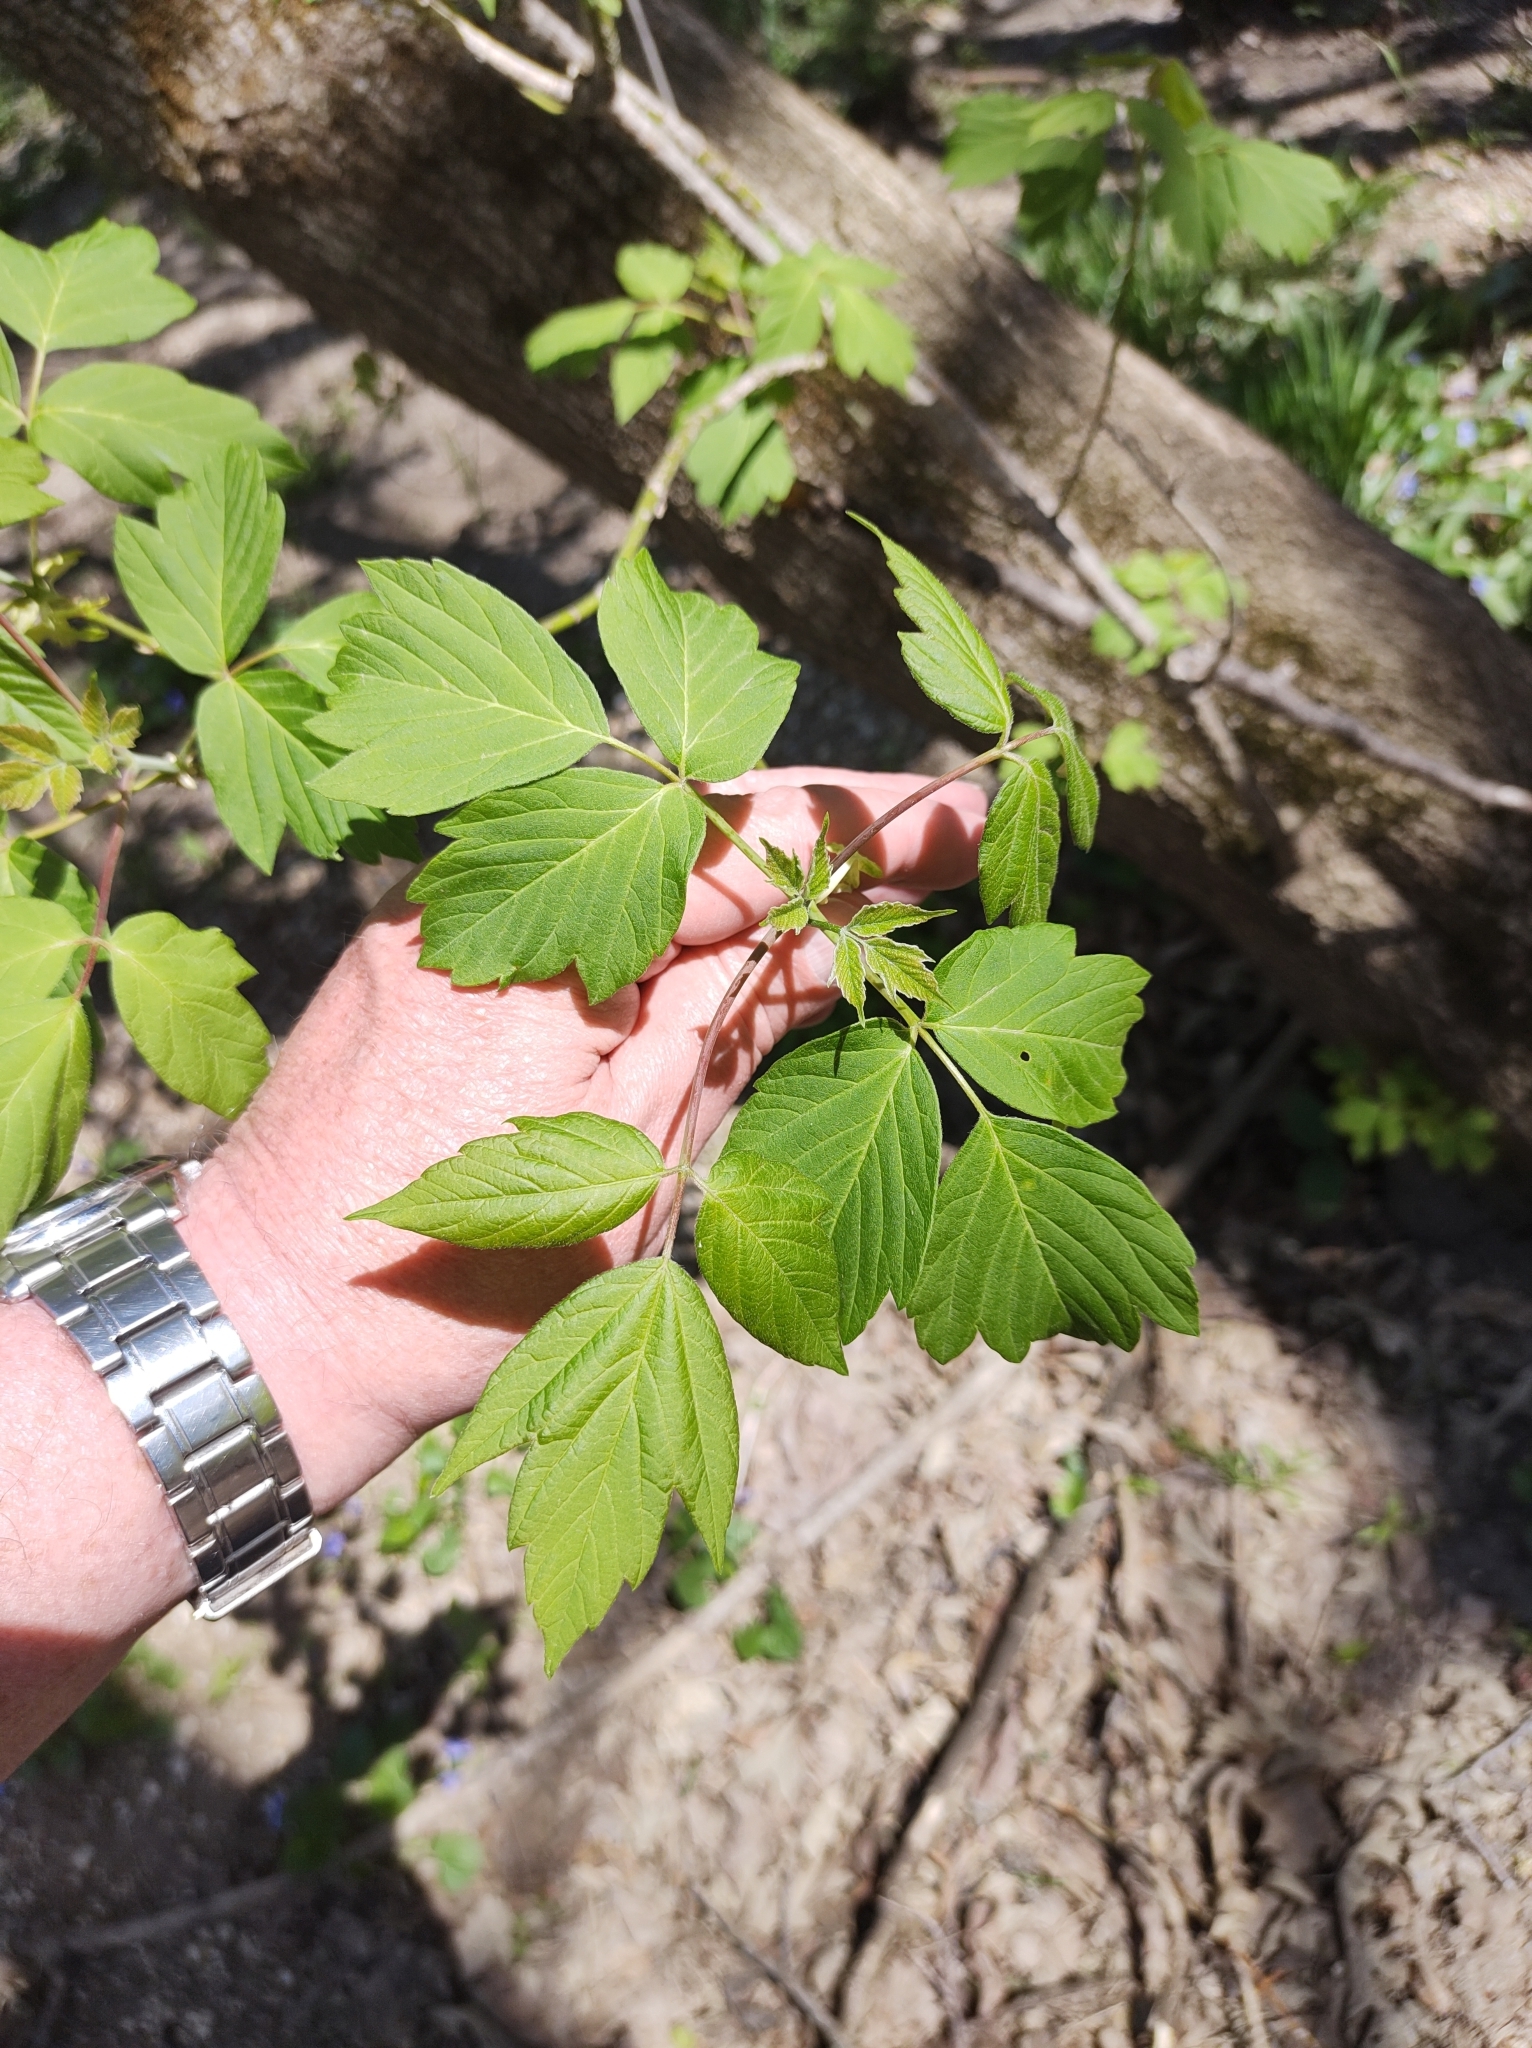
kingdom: Plantae
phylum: Tracheophyta
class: Magnoliopsida
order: Sapindales
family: Sapindaceae
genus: Acer
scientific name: Acer negundo
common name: Ashleaf maple
